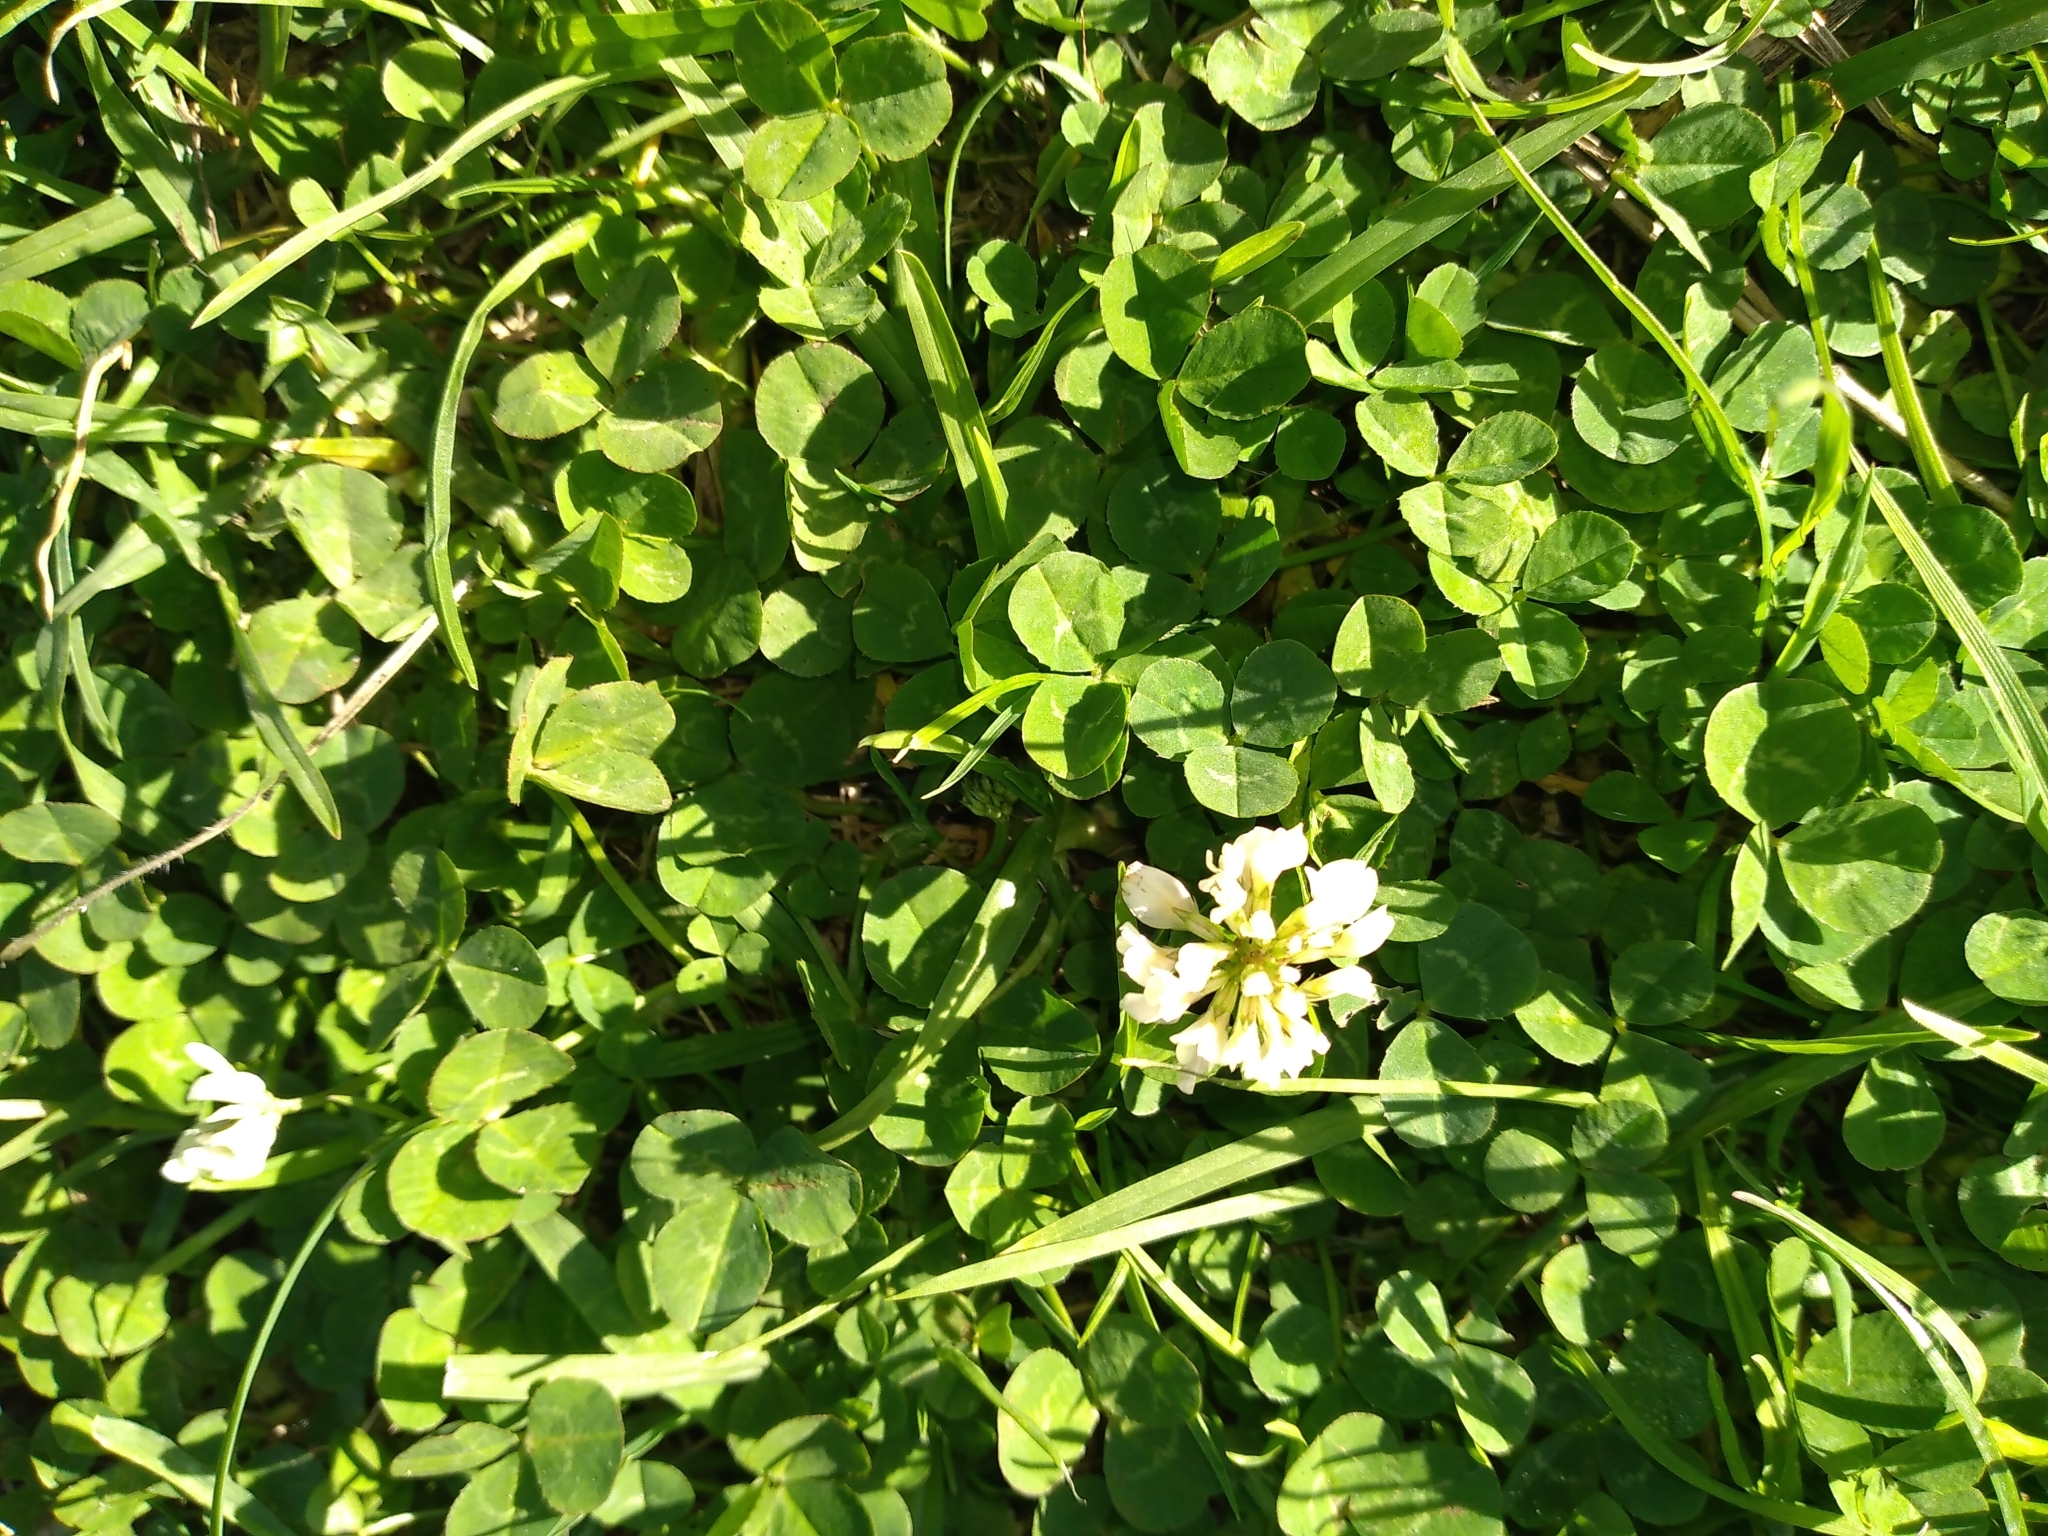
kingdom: Plantae
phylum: Tracheophyta
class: Magnoliopsida
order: Fabales
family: Fabaceae
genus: Trifolium
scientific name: Trifolium repens
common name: White clover
